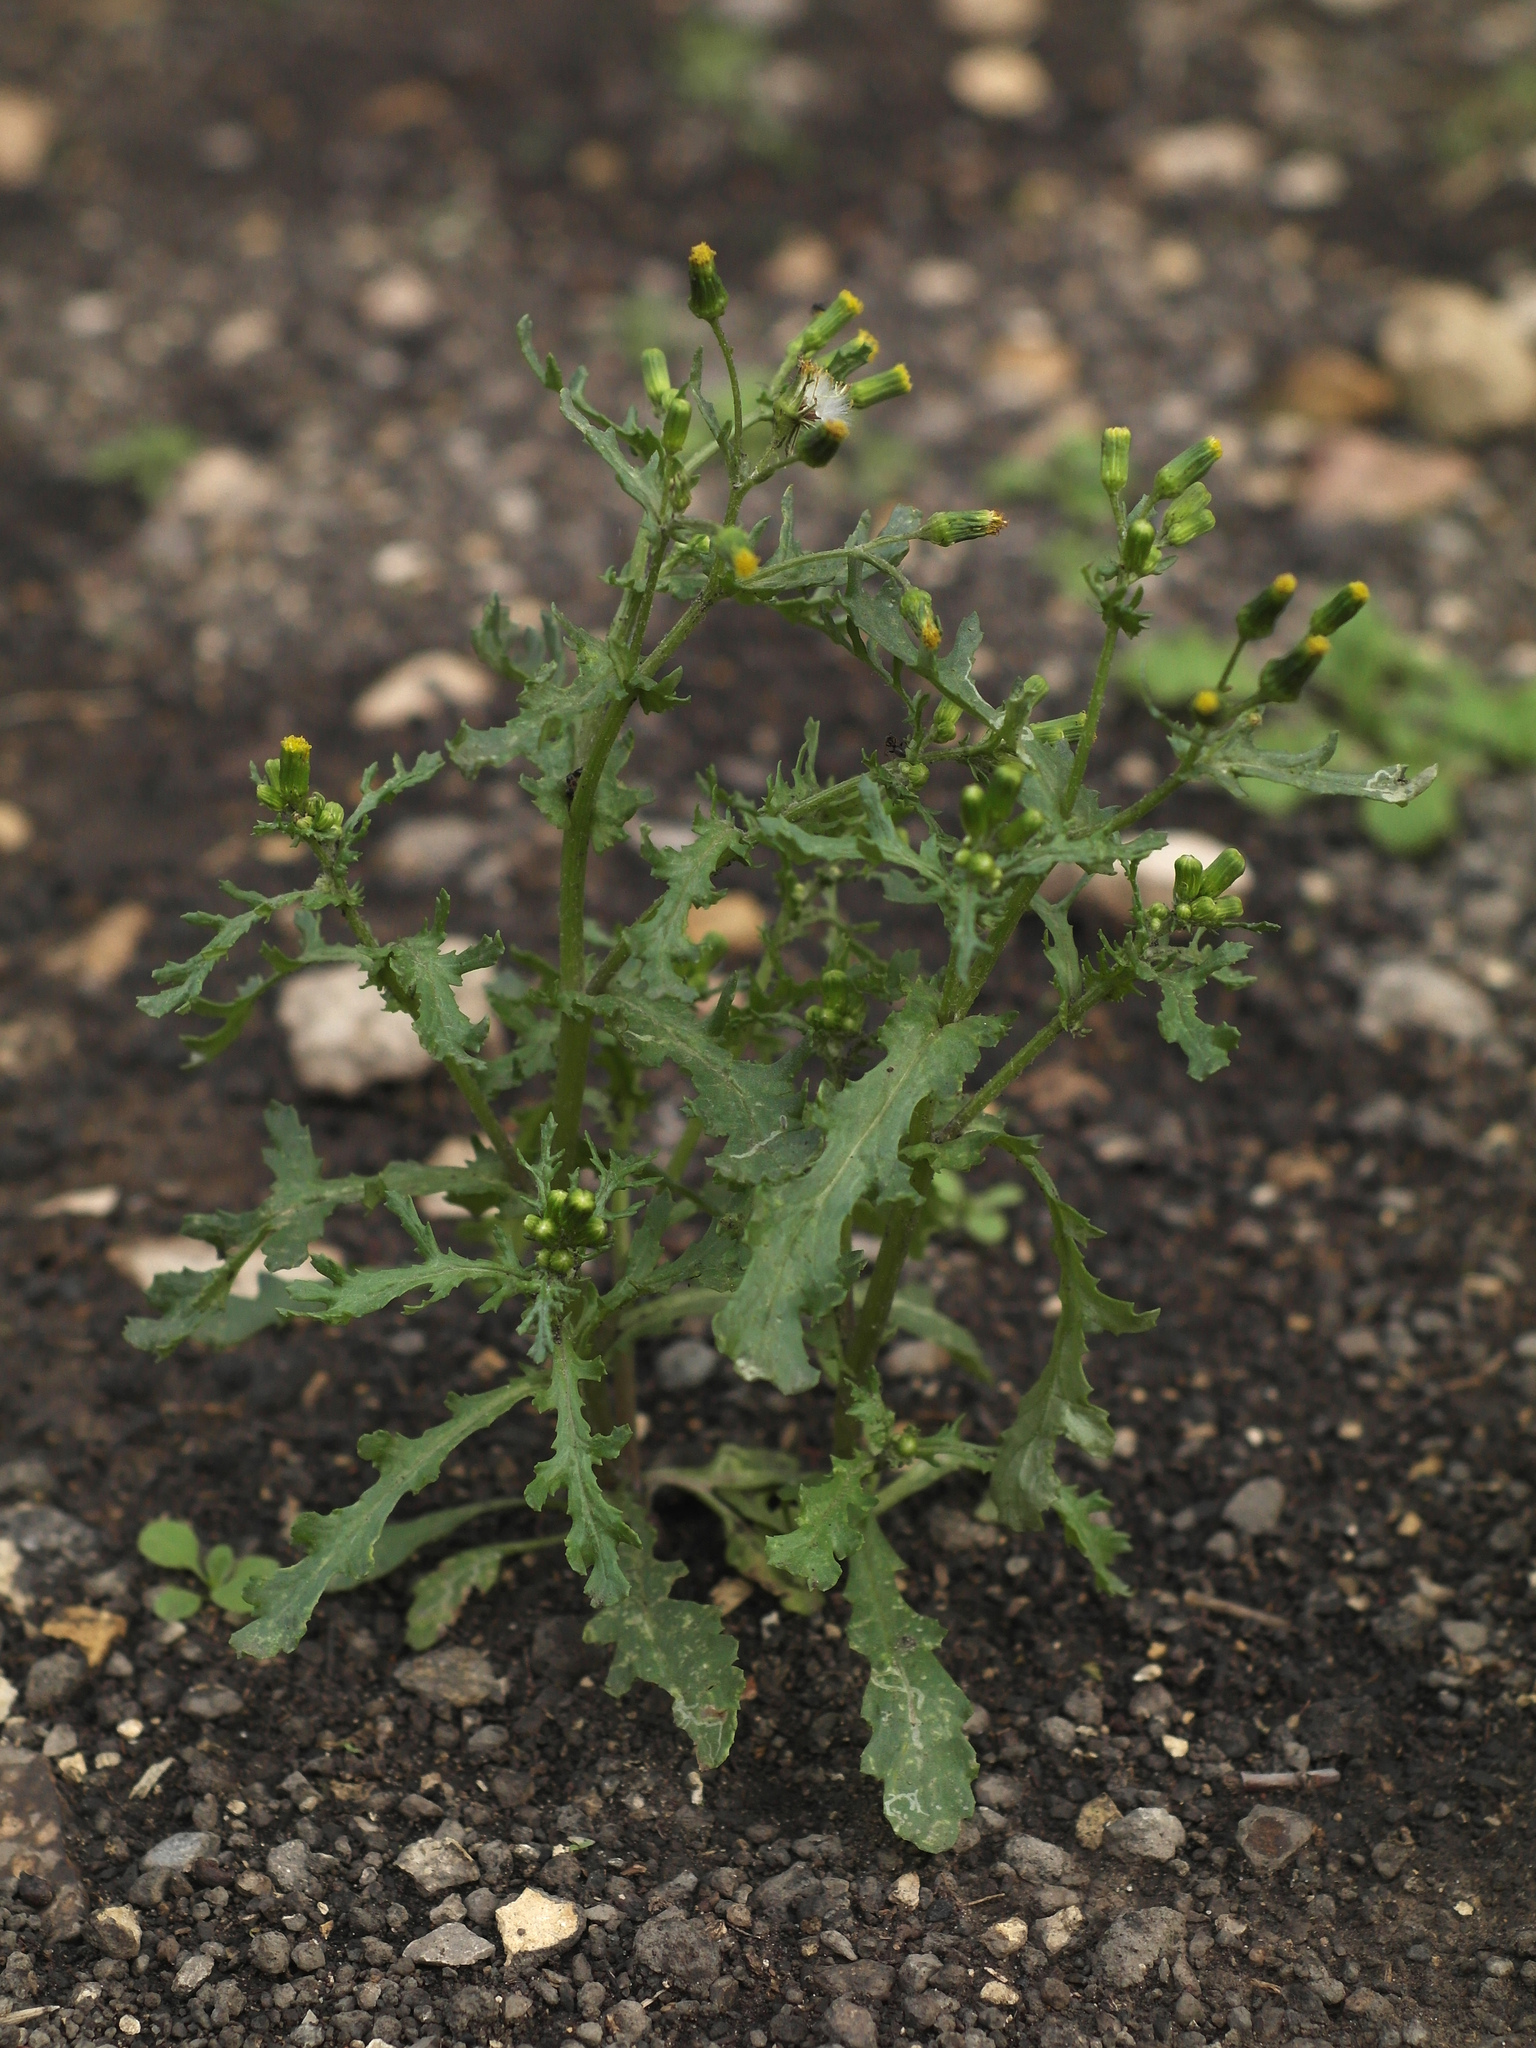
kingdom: Plantae
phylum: Tracheophyta
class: Magnoliopsida
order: Asterales
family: Asteraceae
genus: Senecio
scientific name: Senecio vulgaris
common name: Old-man-in-the-spring
